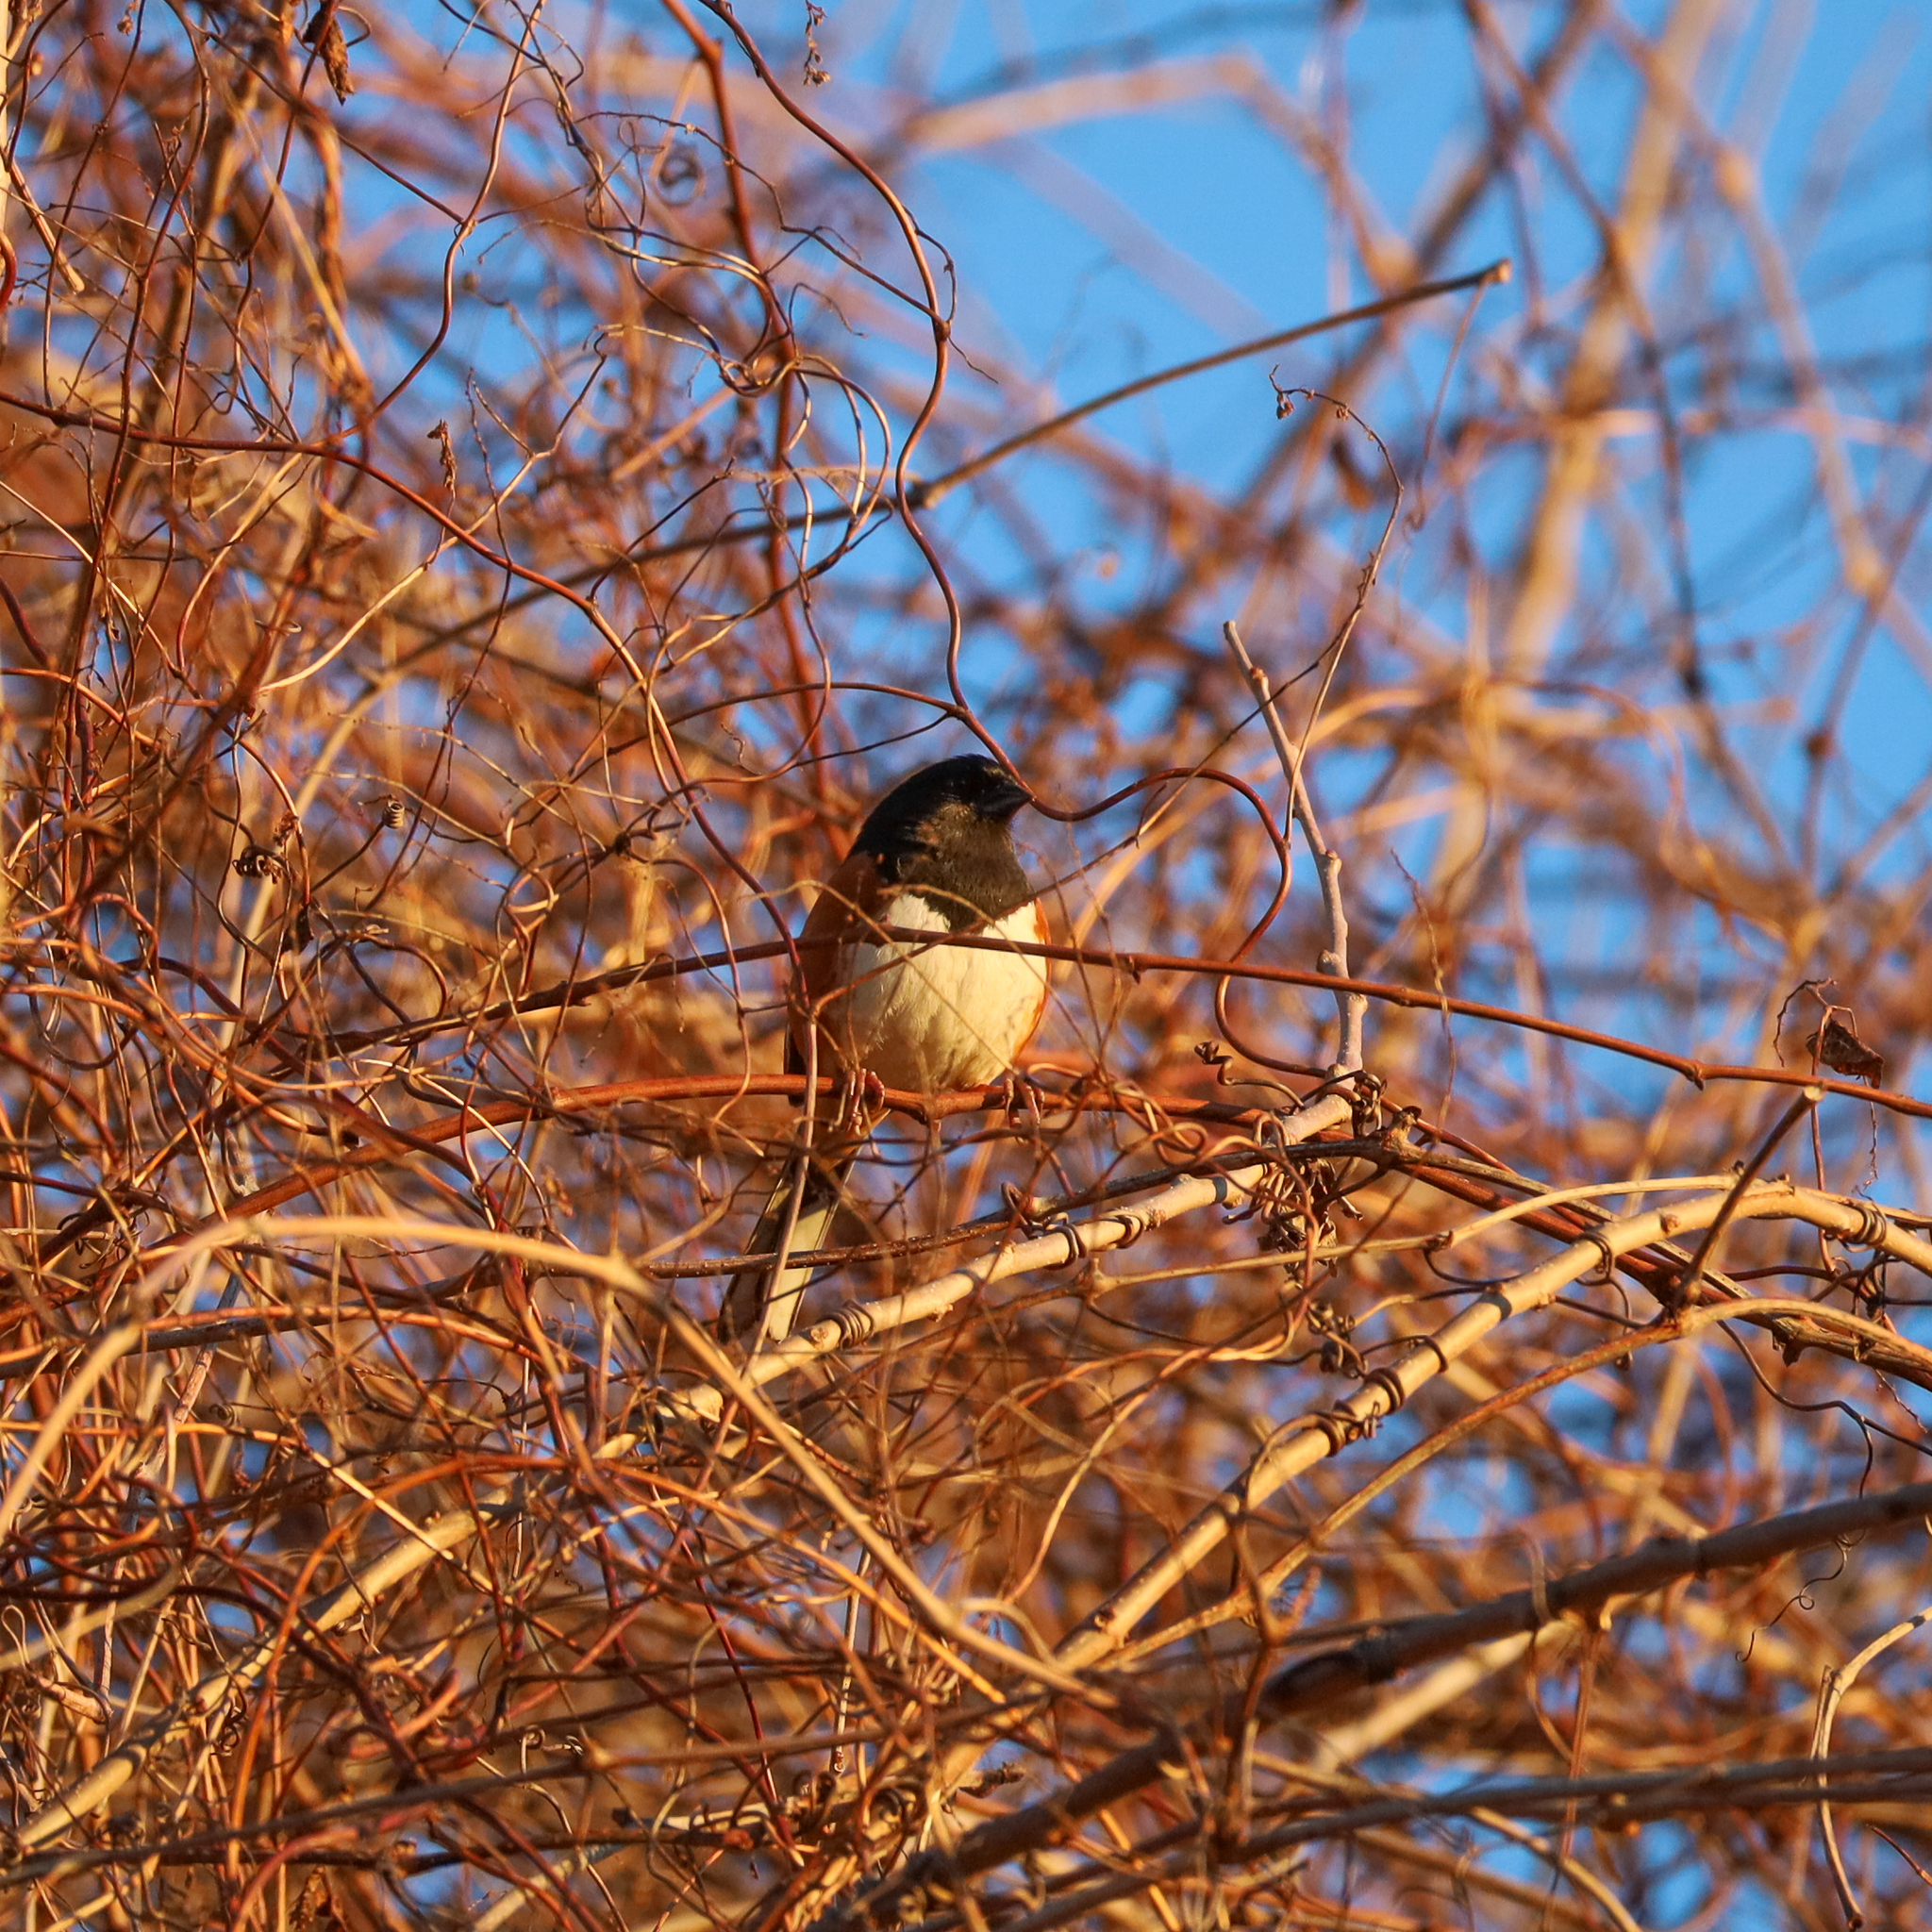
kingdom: Animalia
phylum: Chordata
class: Aves
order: Passeriformes
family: Passerellidae
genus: Pipilo
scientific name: Pipilo erythrophthalmus
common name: Eastern towhee
